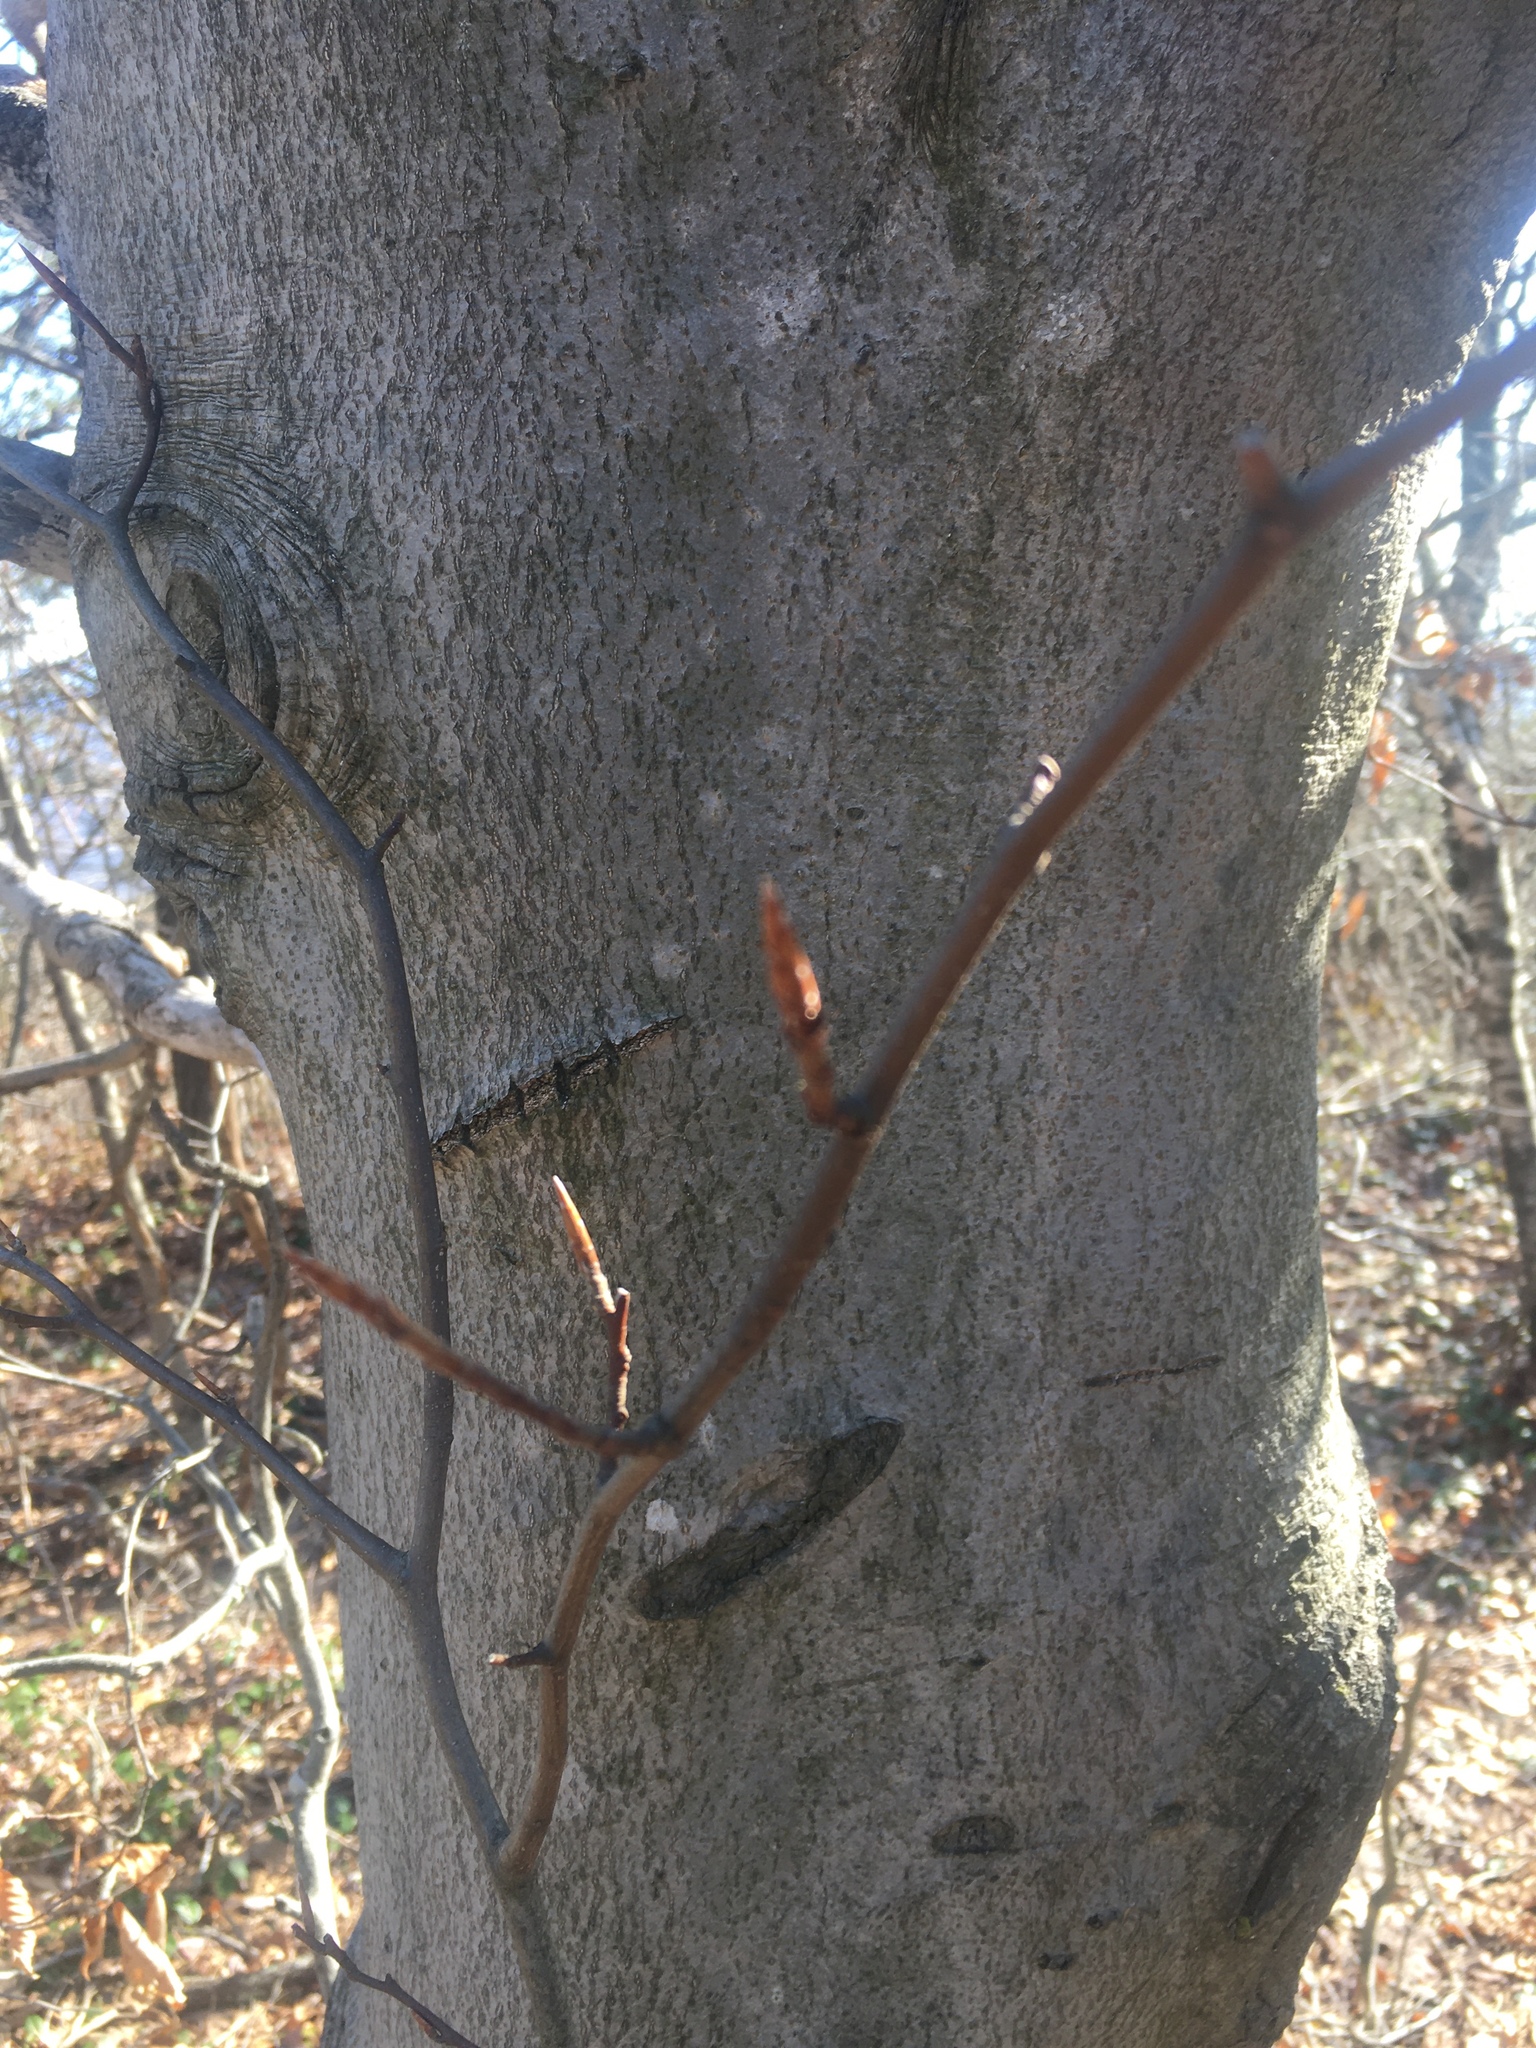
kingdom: Plantae
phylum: Tracheophyta
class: Magnoliopsida
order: Fagales
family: Fagaceae
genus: Fagus
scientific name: Fagus grandifolia
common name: American beech
